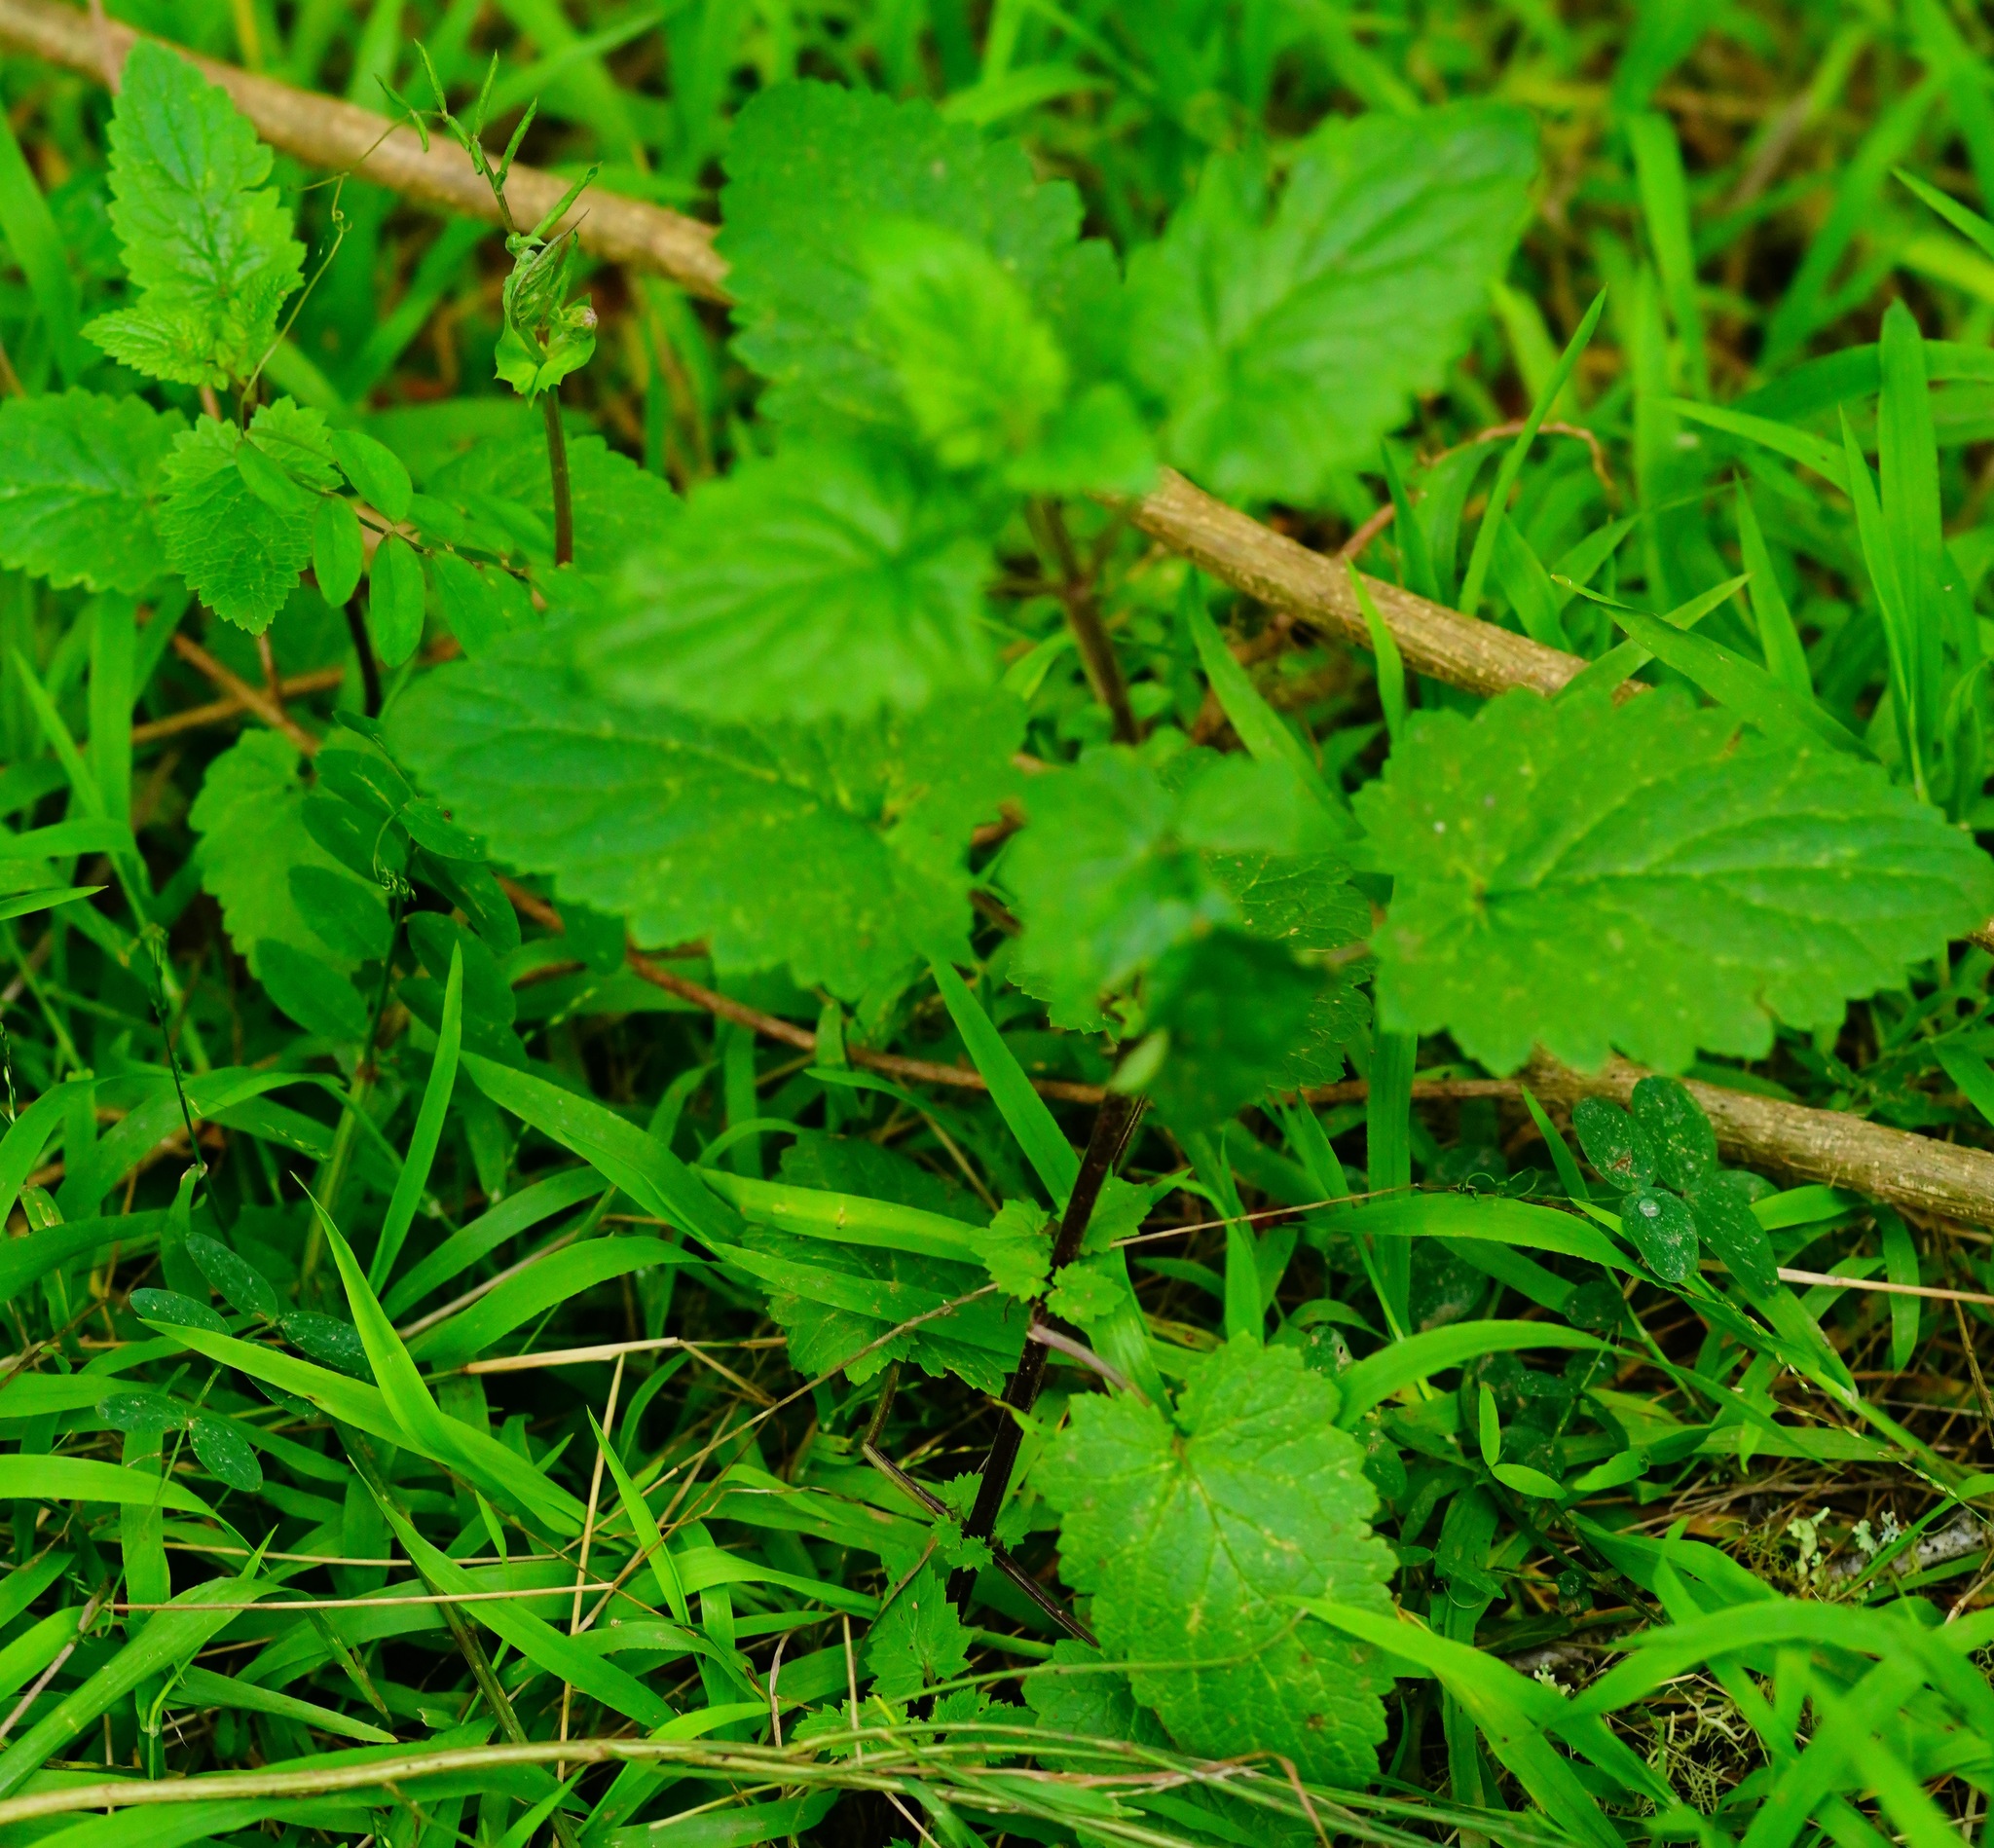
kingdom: Plantae
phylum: Tracheophyta
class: Magnoliopsida
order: Lamiales
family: Scrophulariaceae
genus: Scrophularia
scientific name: Scrophularia californica
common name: California figwort
